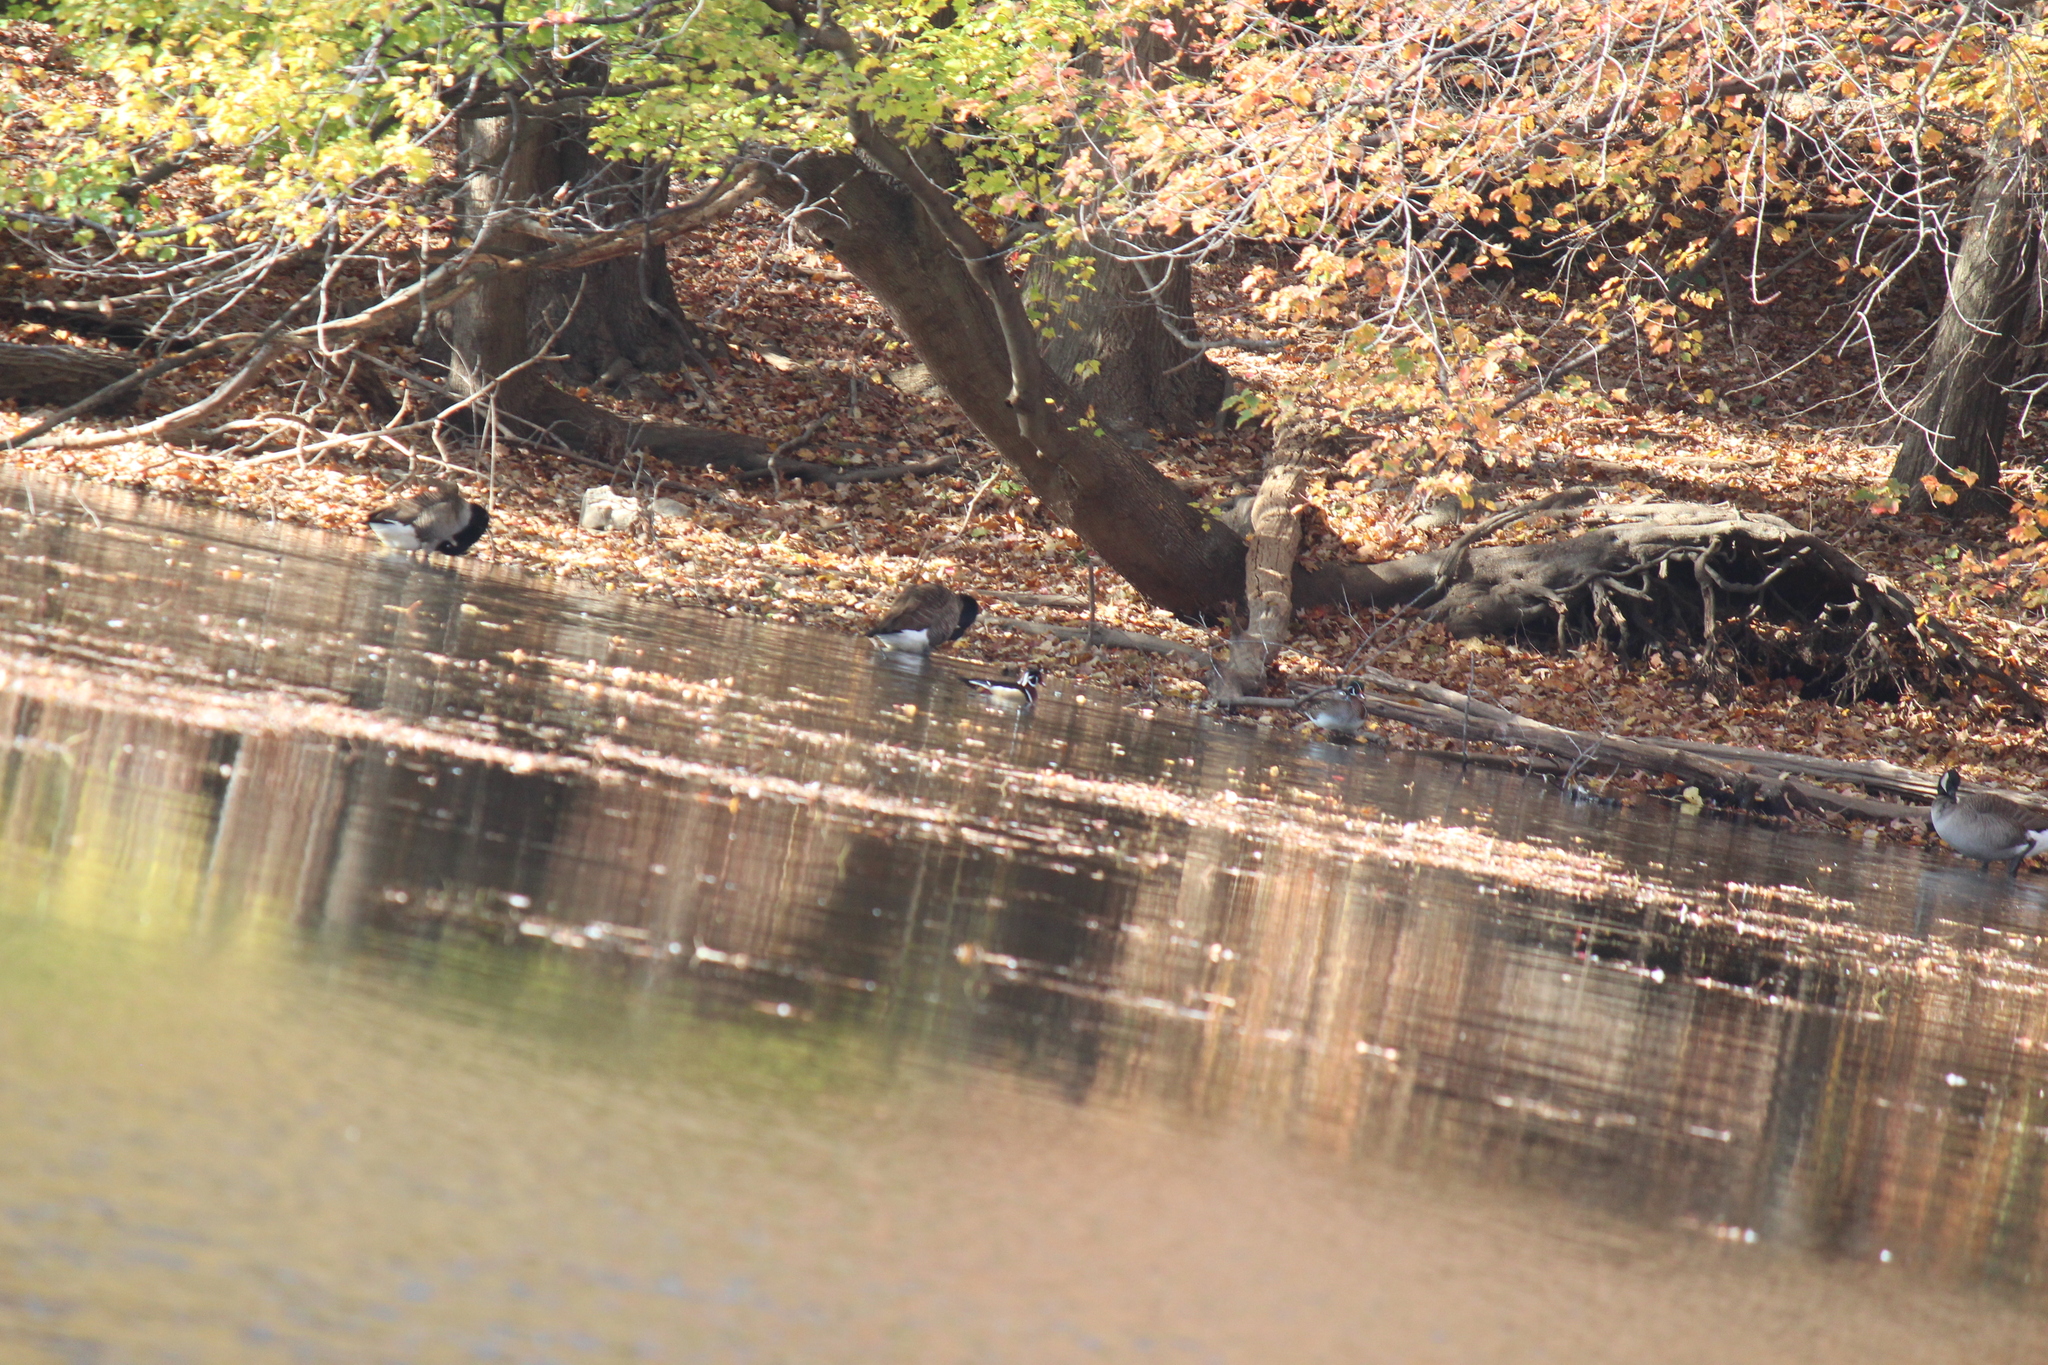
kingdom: Animalia
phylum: Chordata
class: Aves
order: Anseriformes
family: Anatidae
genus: Aix
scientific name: Aix sponsa
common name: Wood duck
